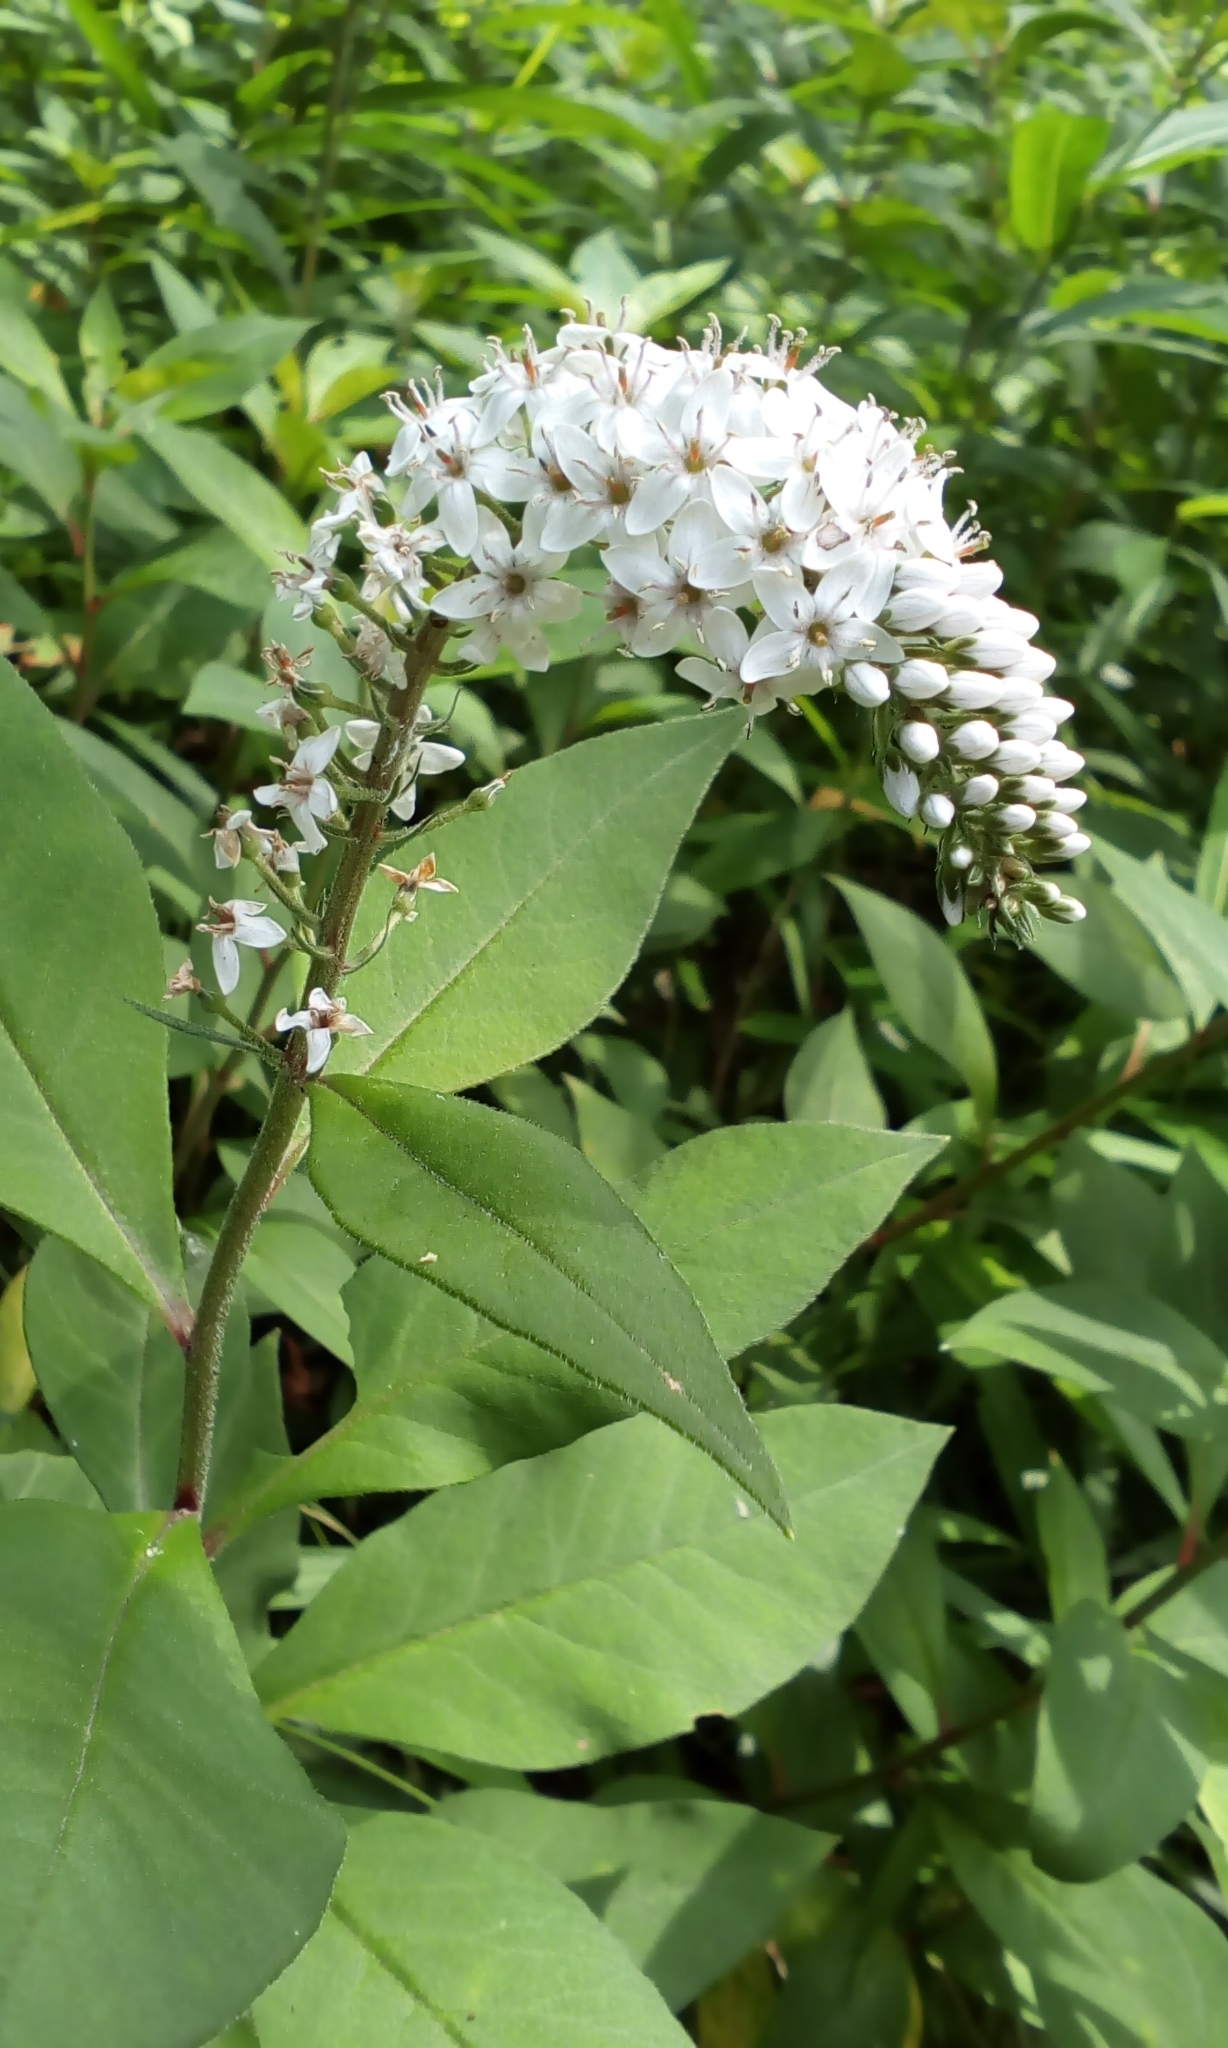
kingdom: Plantae
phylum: Tracheophyta
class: Magnoliopsida
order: Ericales
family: Primulaceae
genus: Lysimachia
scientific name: Lysimachia clethroides
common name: Gooseneck loosestrife
